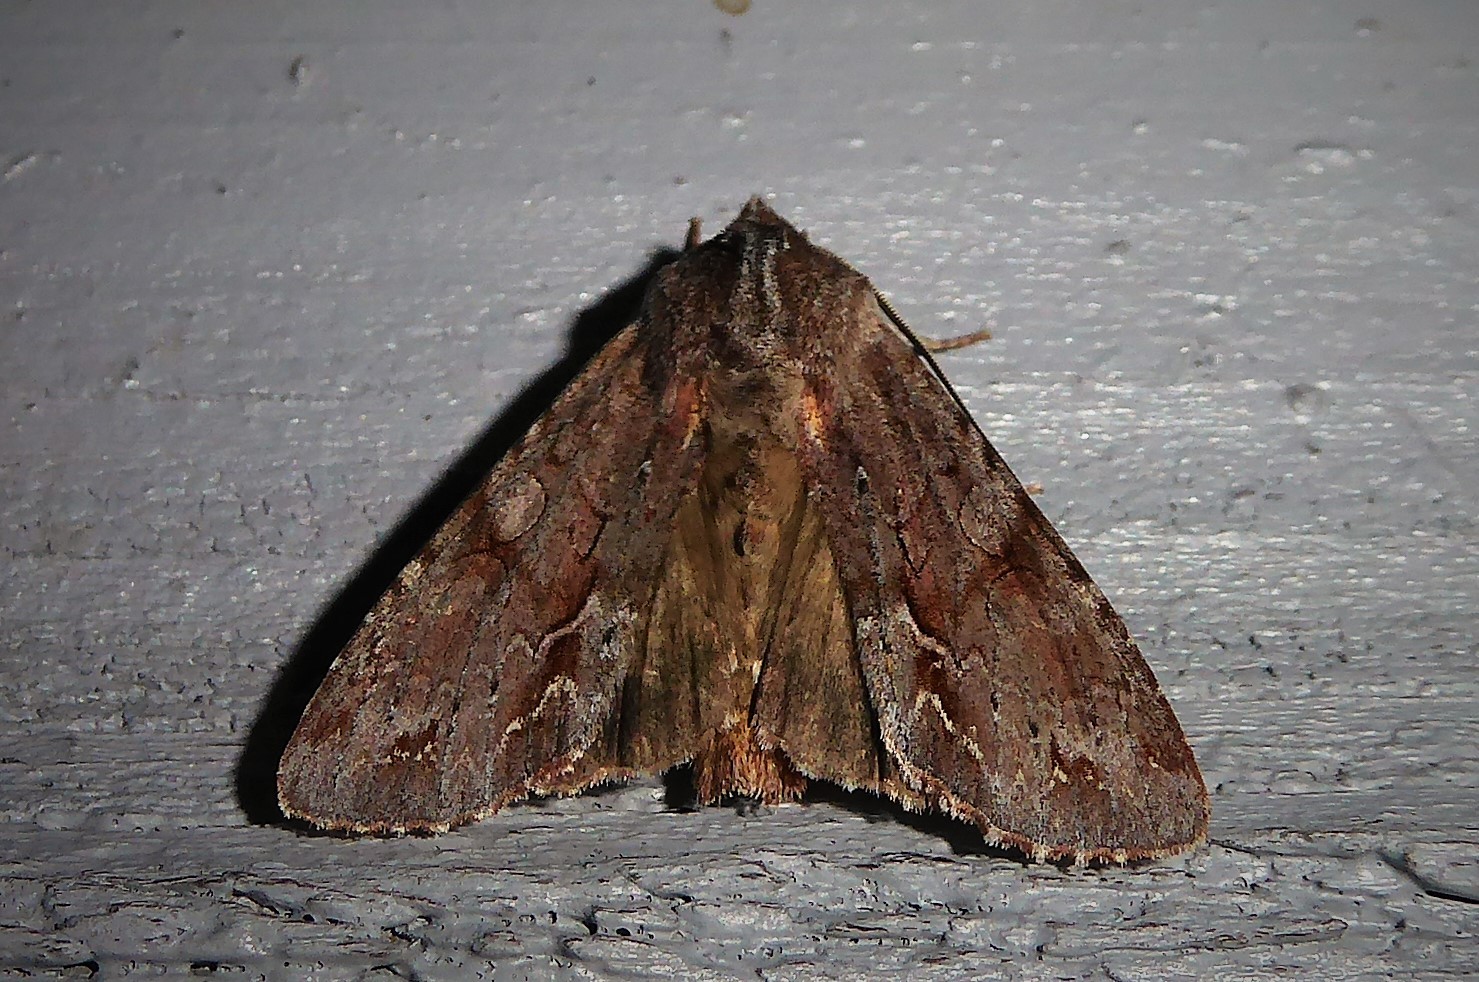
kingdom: Animalia
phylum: Arthropoda
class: Insecta
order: Lepidoptera
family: Noctuidae
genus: Ichneutica
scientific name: Ichneutica
